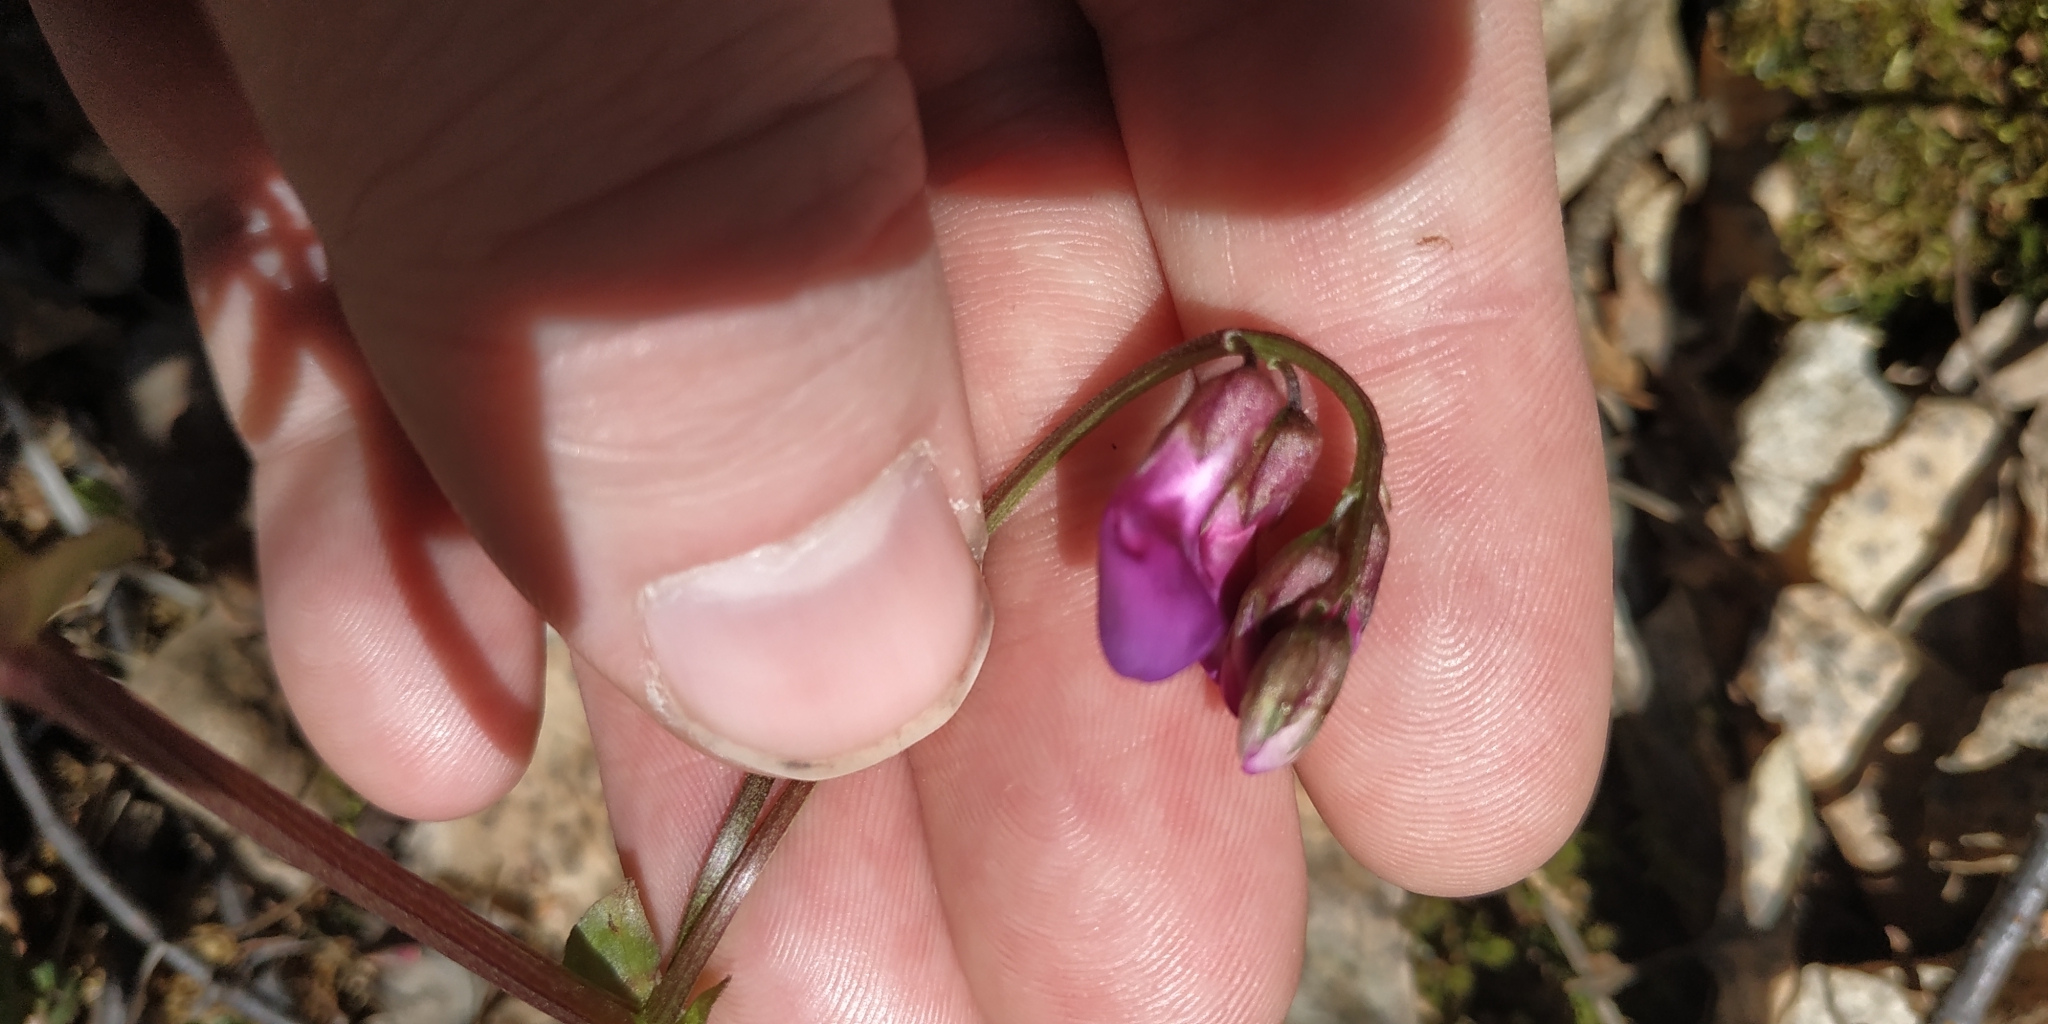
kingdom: Plantae
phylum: Tracheophyta
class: Magnoliopsida
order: Fabales
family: Fabaceae
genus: Lathyrus
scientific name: Lathyrus vernus
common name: Spring pea
